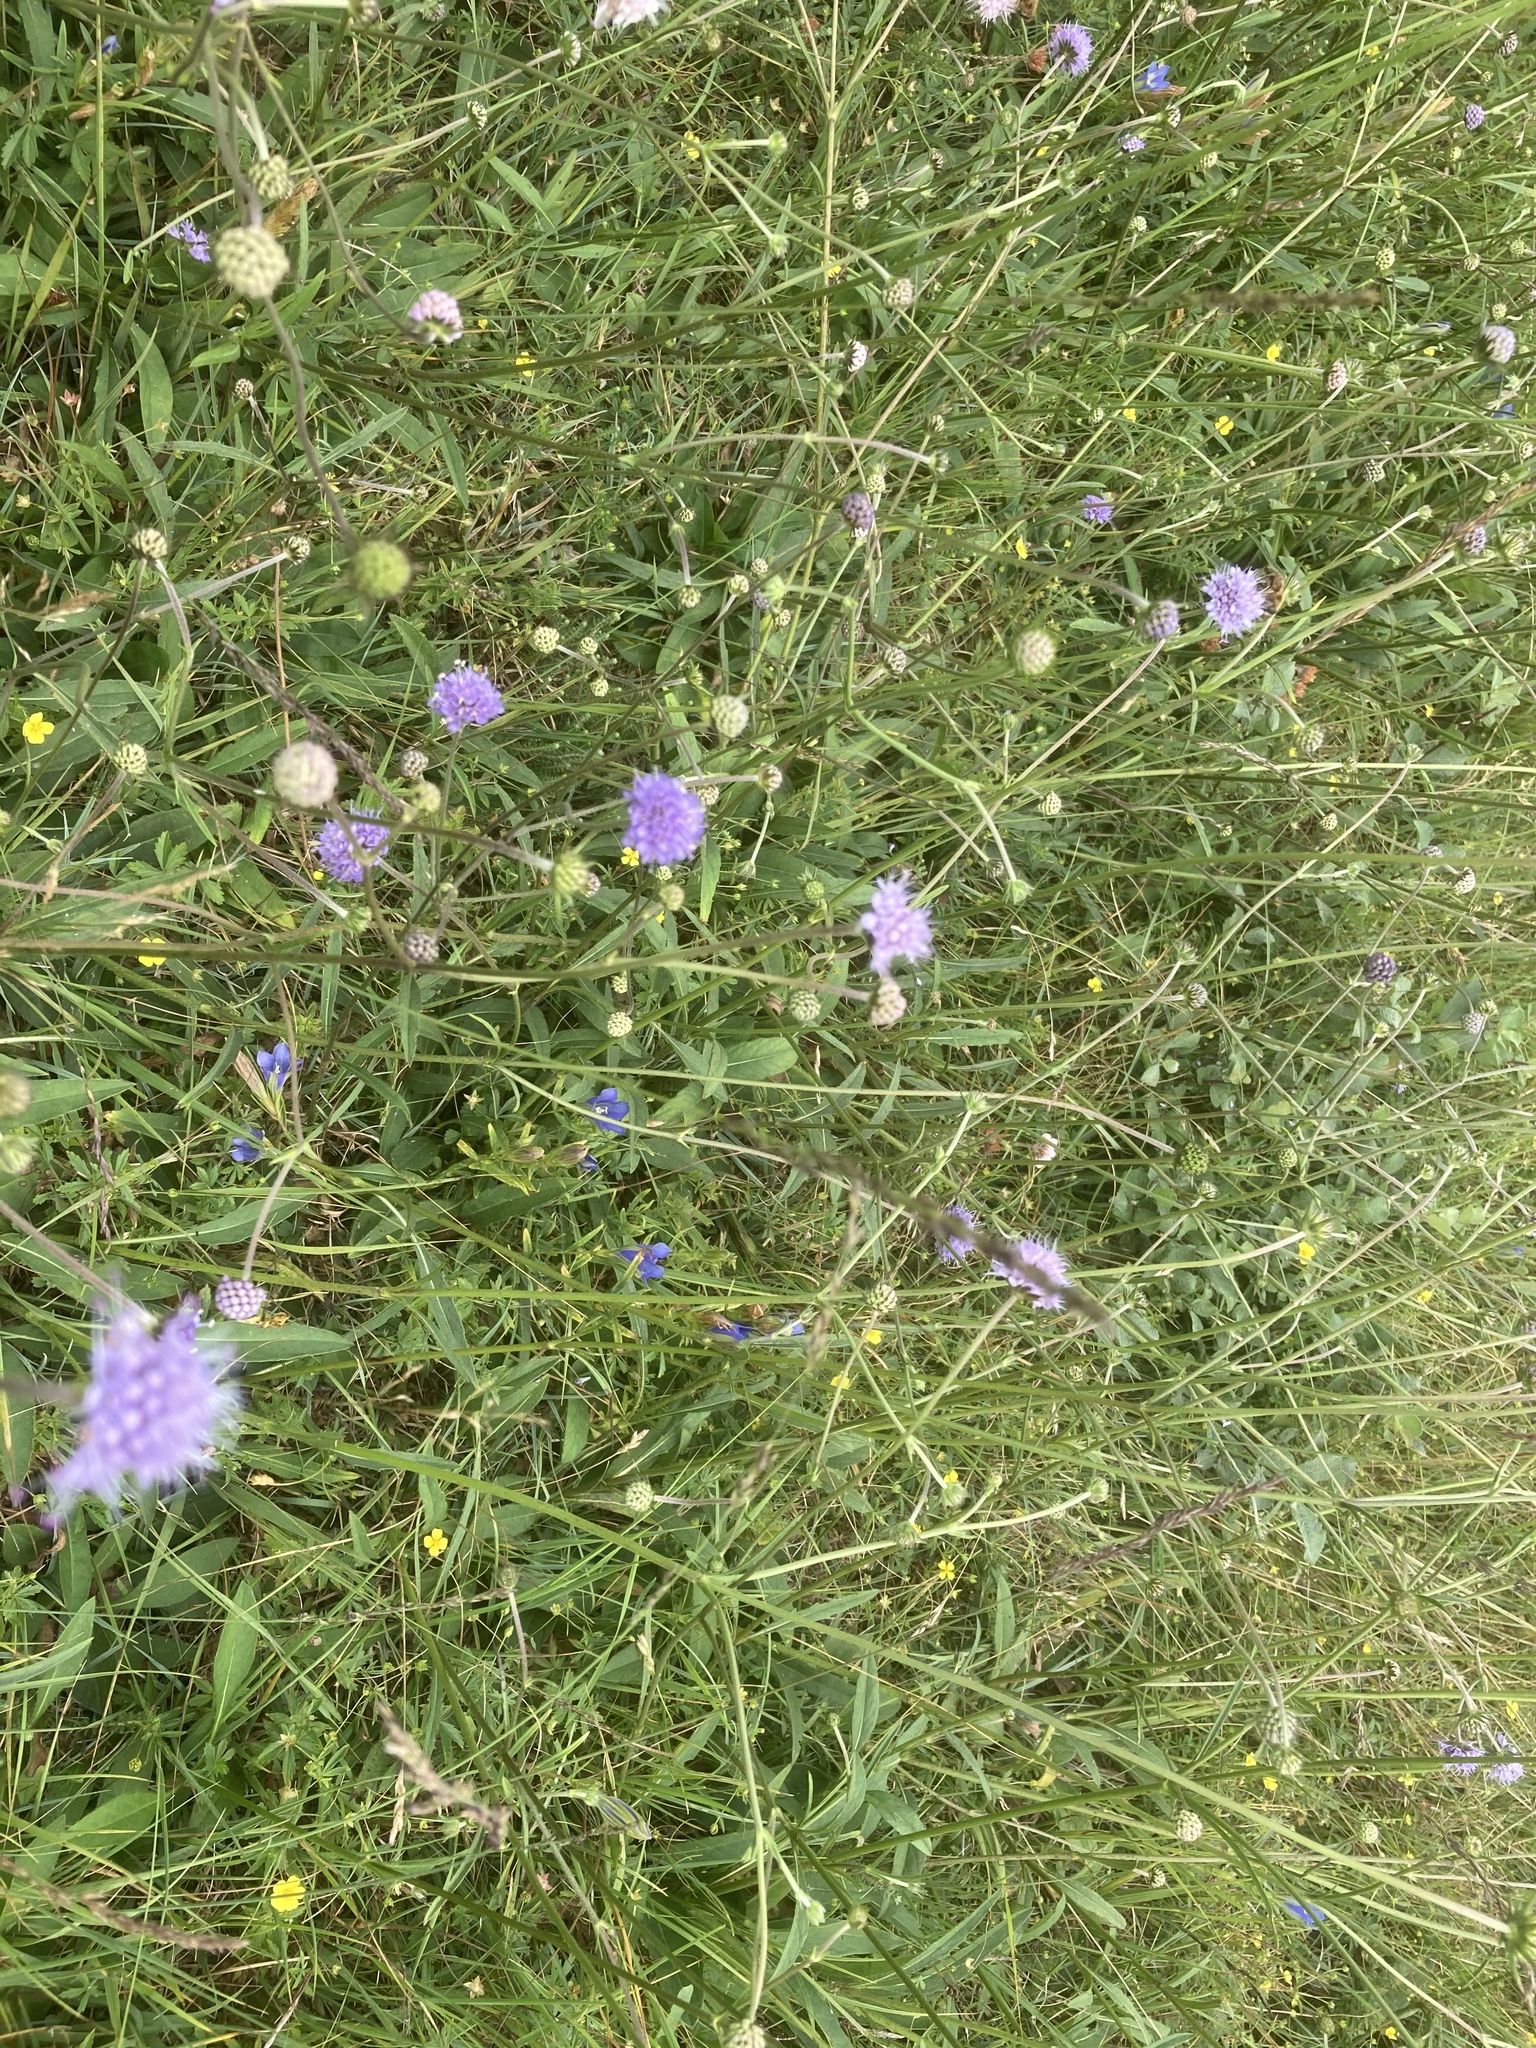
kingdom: Plantae
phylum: Tracheophyta
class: Magnoliopsida
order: Dipsacales
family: Caprifoliaceae
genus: Succisa
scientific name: Succisa pratensis
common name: Devil's-bit
